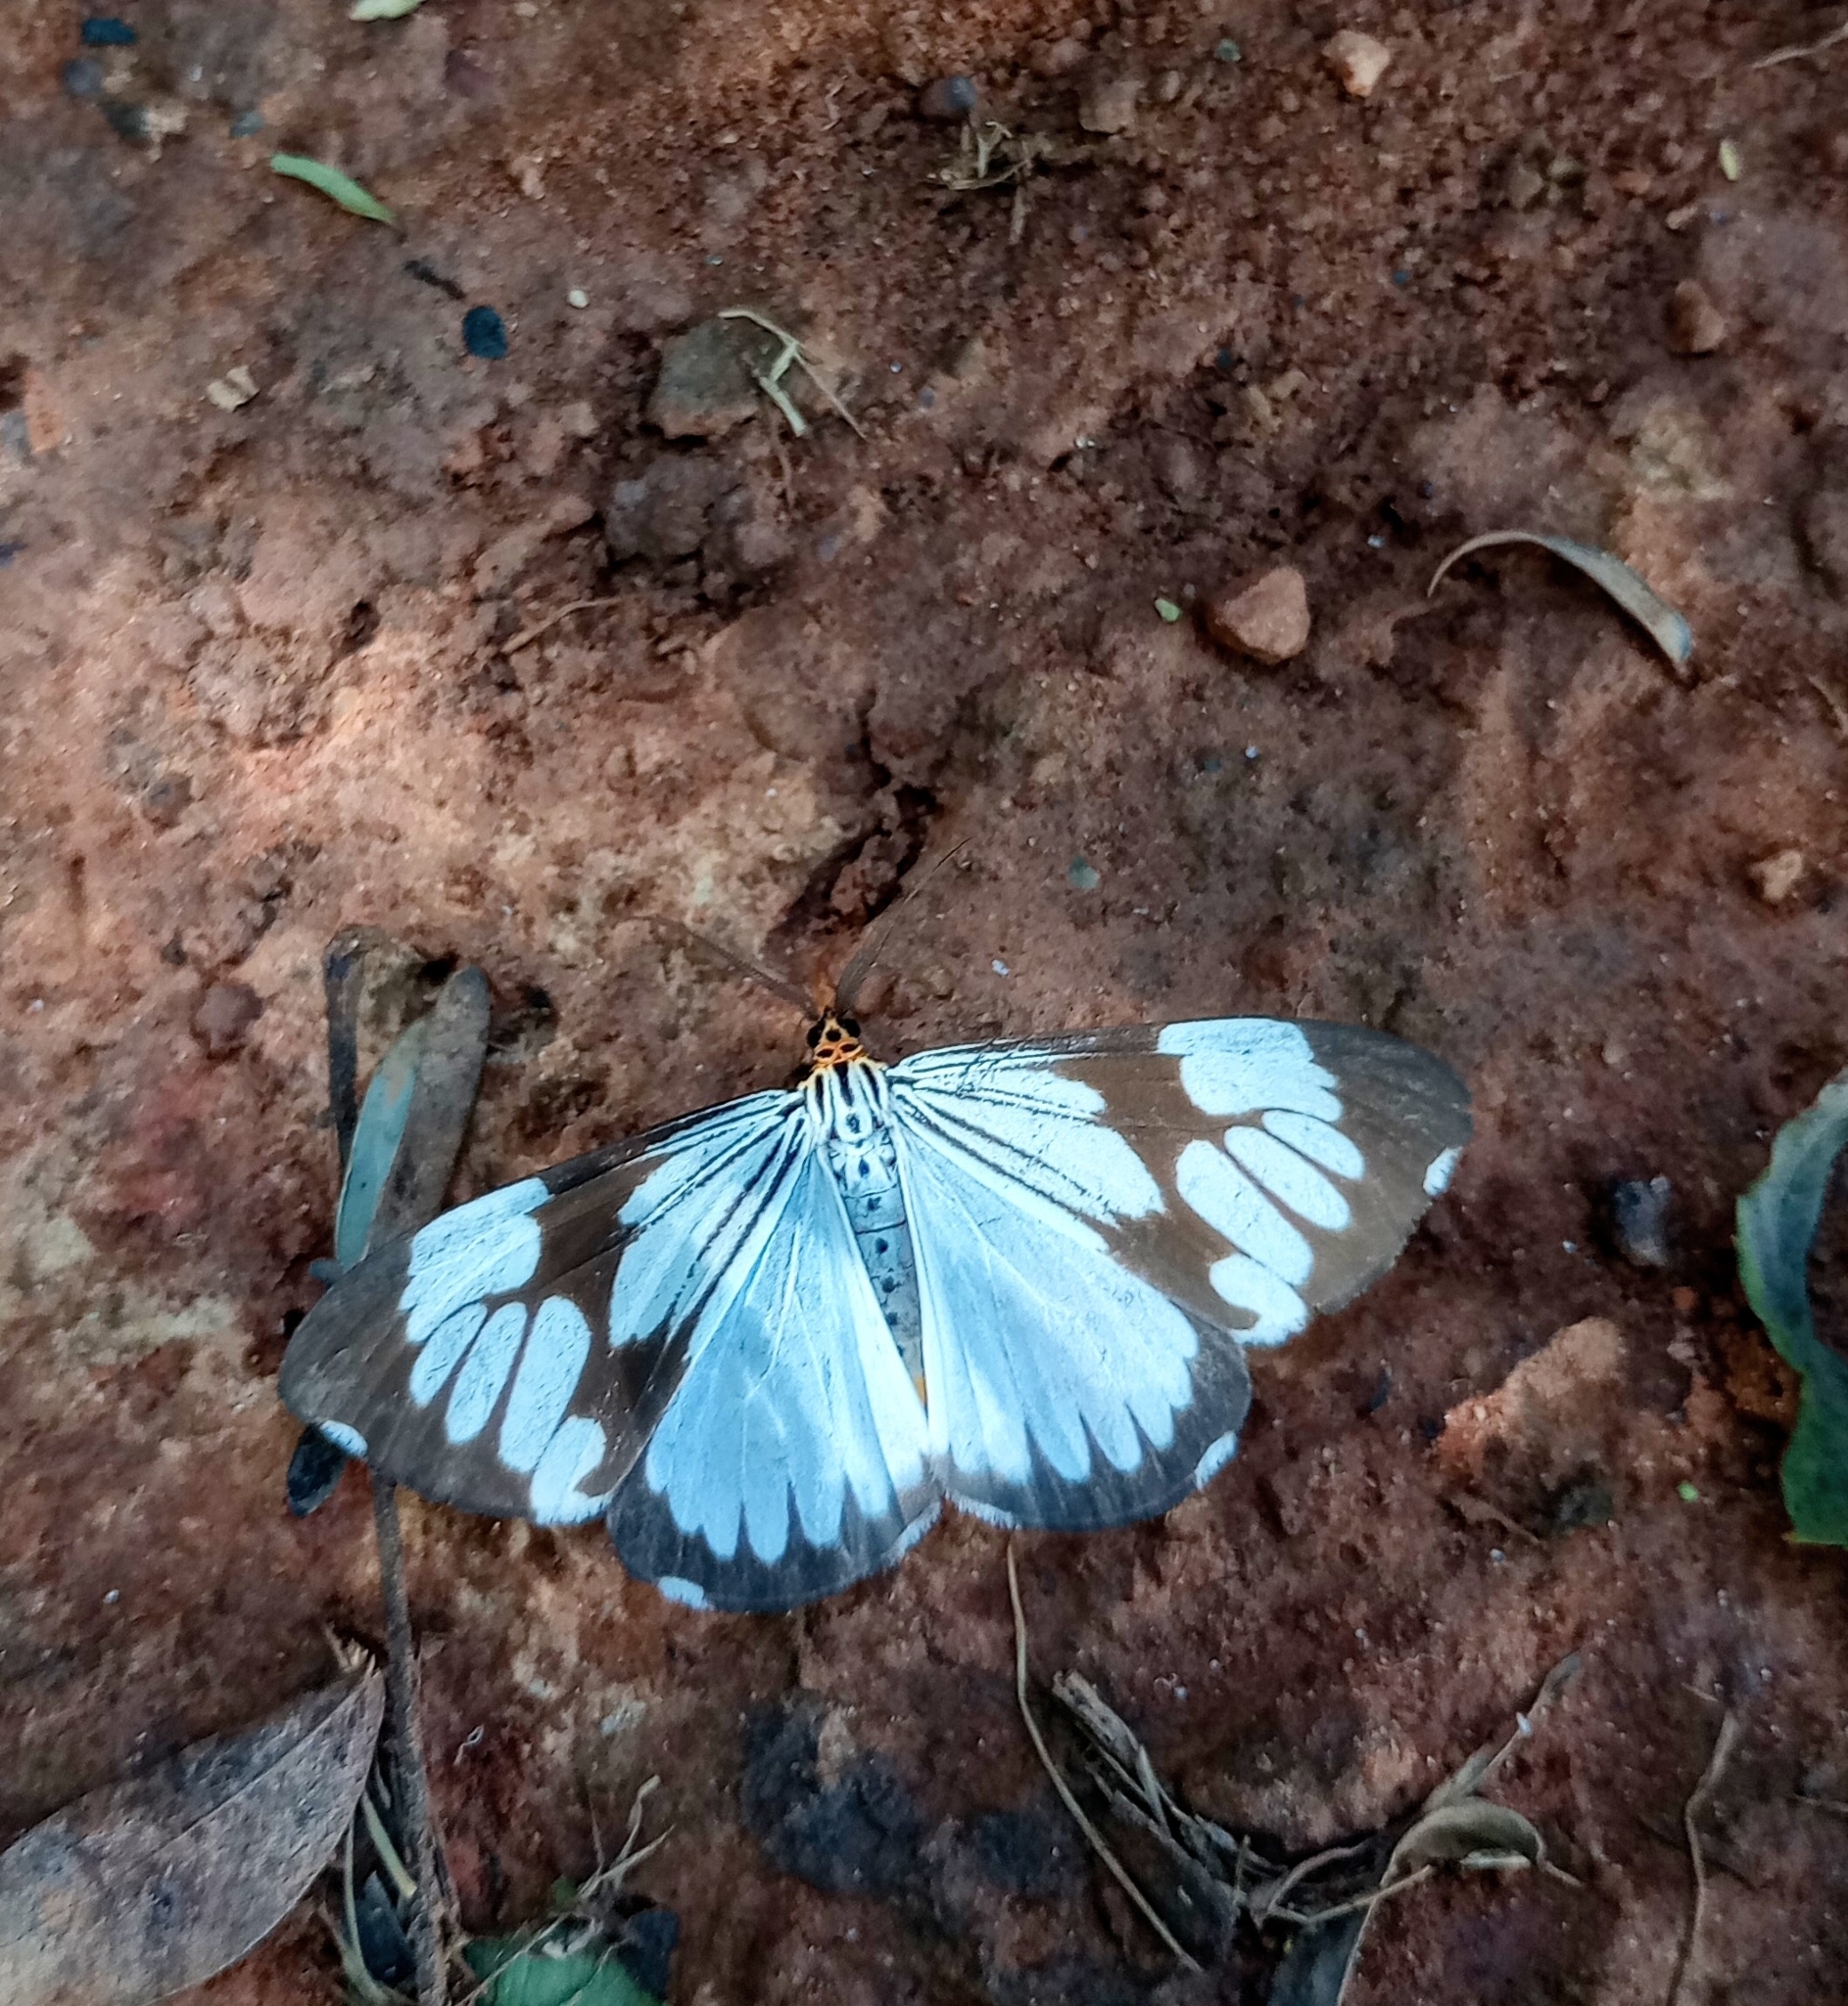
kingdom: Animalia
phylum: Arthropoda
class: Insecta
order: Lepidoptera
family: Erebidae
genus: Nyctemera
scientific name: Nyctemera coleta
